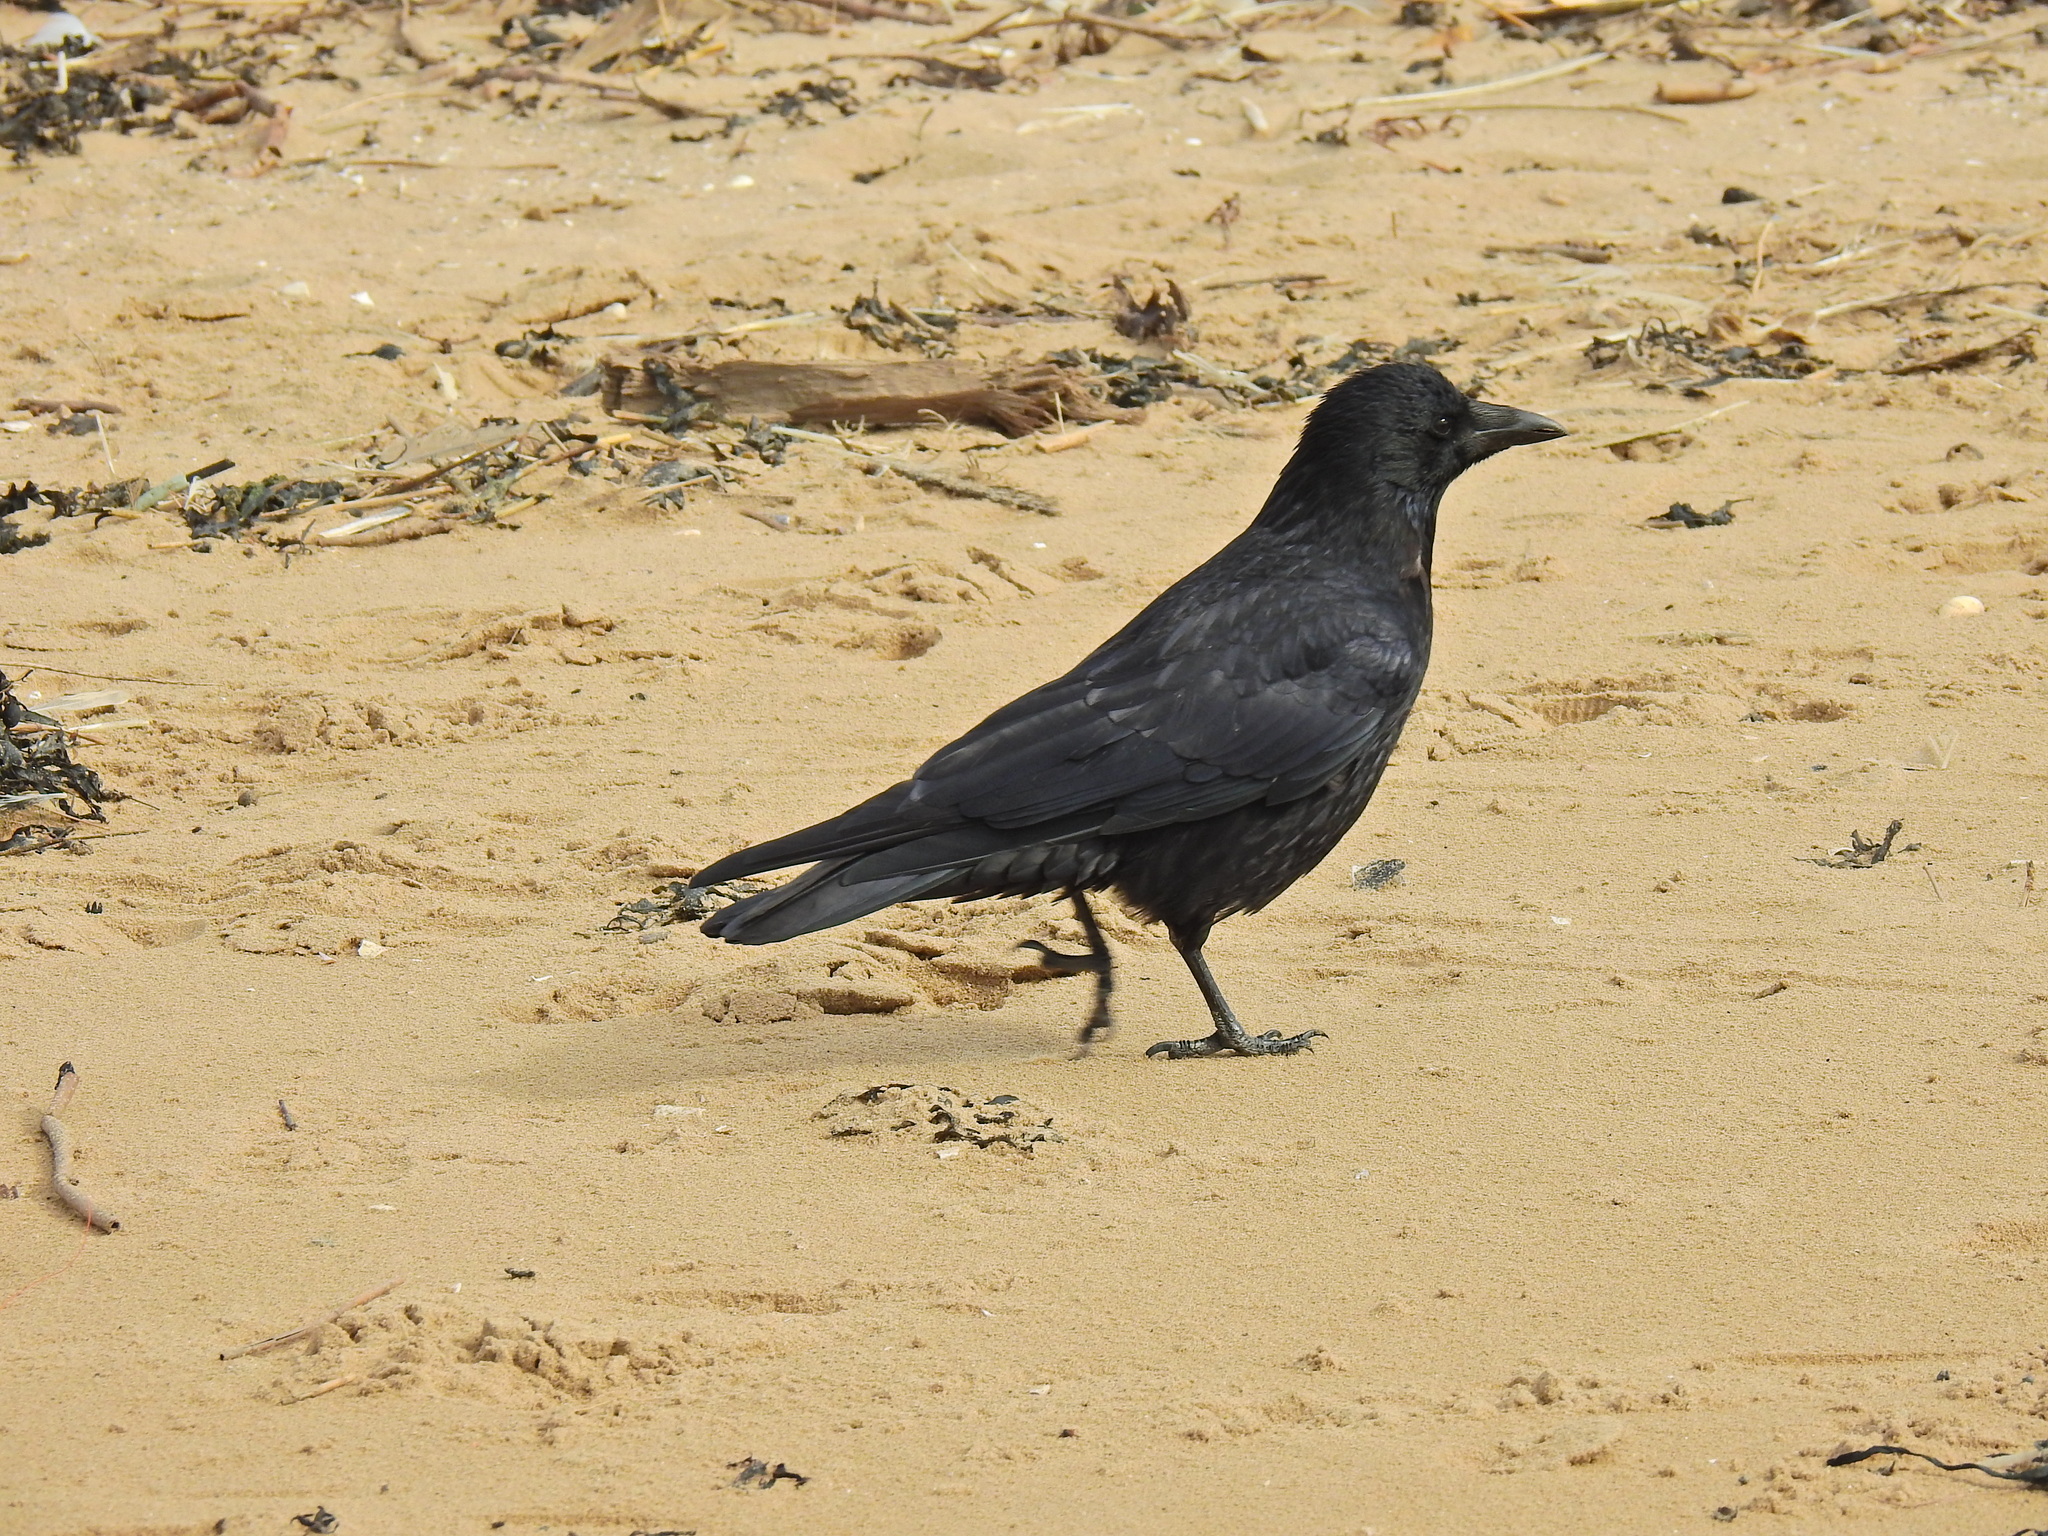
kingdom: Animalia
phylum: Chordata
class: Aves
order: Passeriformes
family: Corvidae
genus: Corvus
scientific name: Corvus corone
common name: Carrion crow
